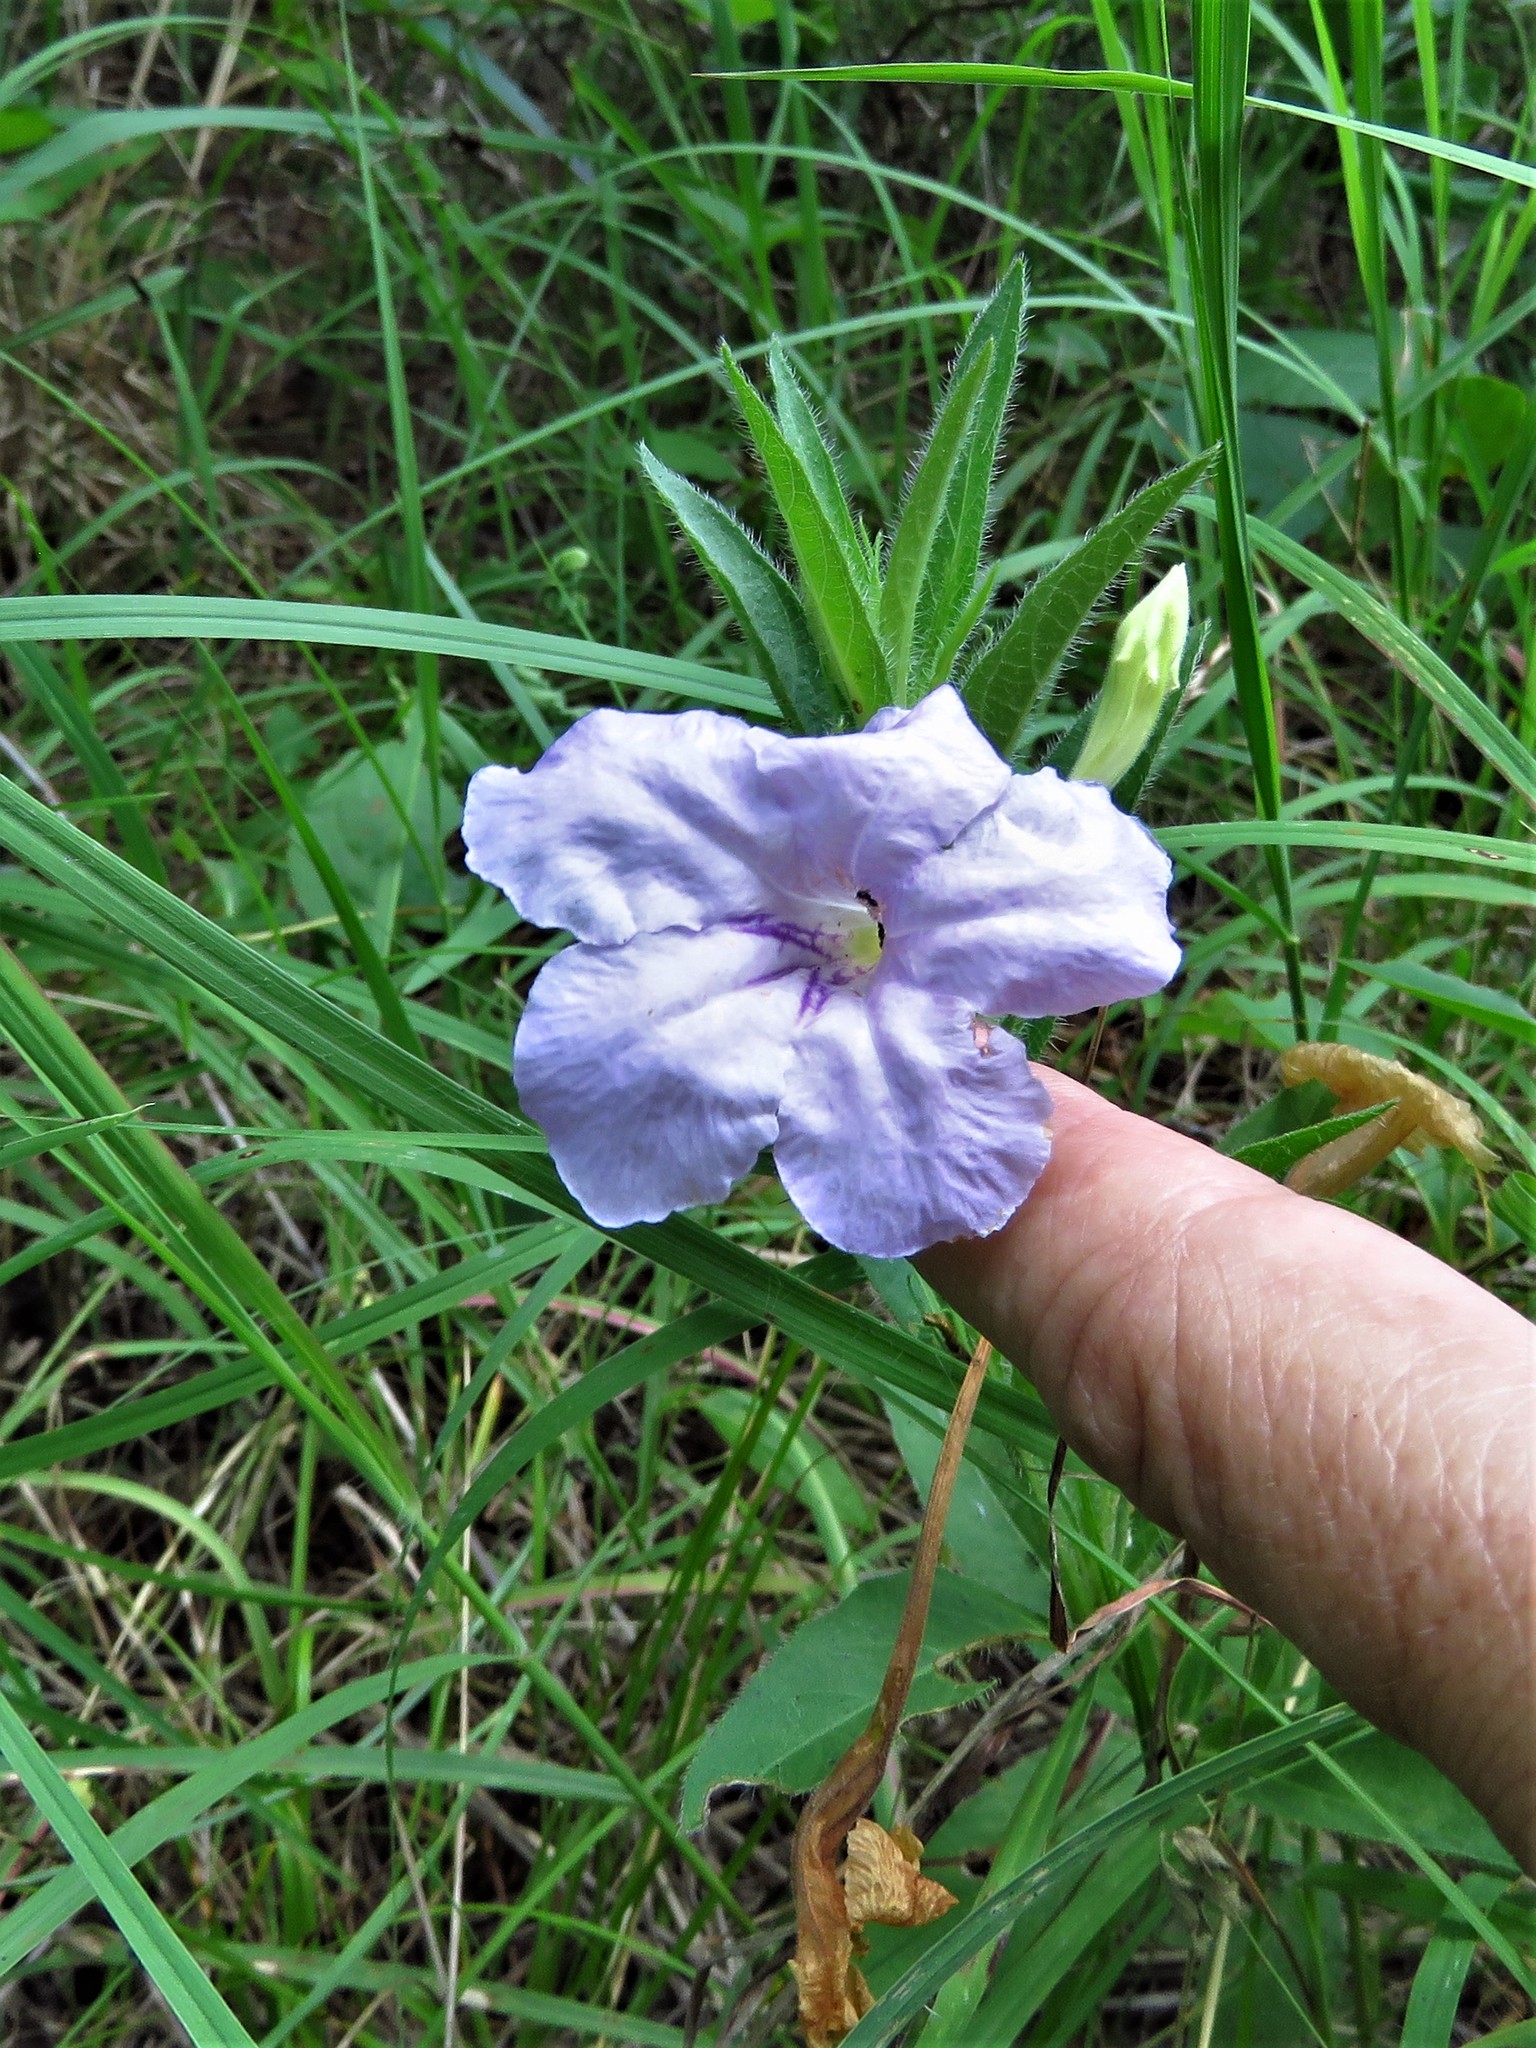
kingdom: Plantae
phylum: Tracheophyta
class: Magnoliopsida
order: Lamiales
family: Acanthaceae
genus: Ruellia
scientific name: Ruellia humilis
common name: Fringe-leaf ruellia
